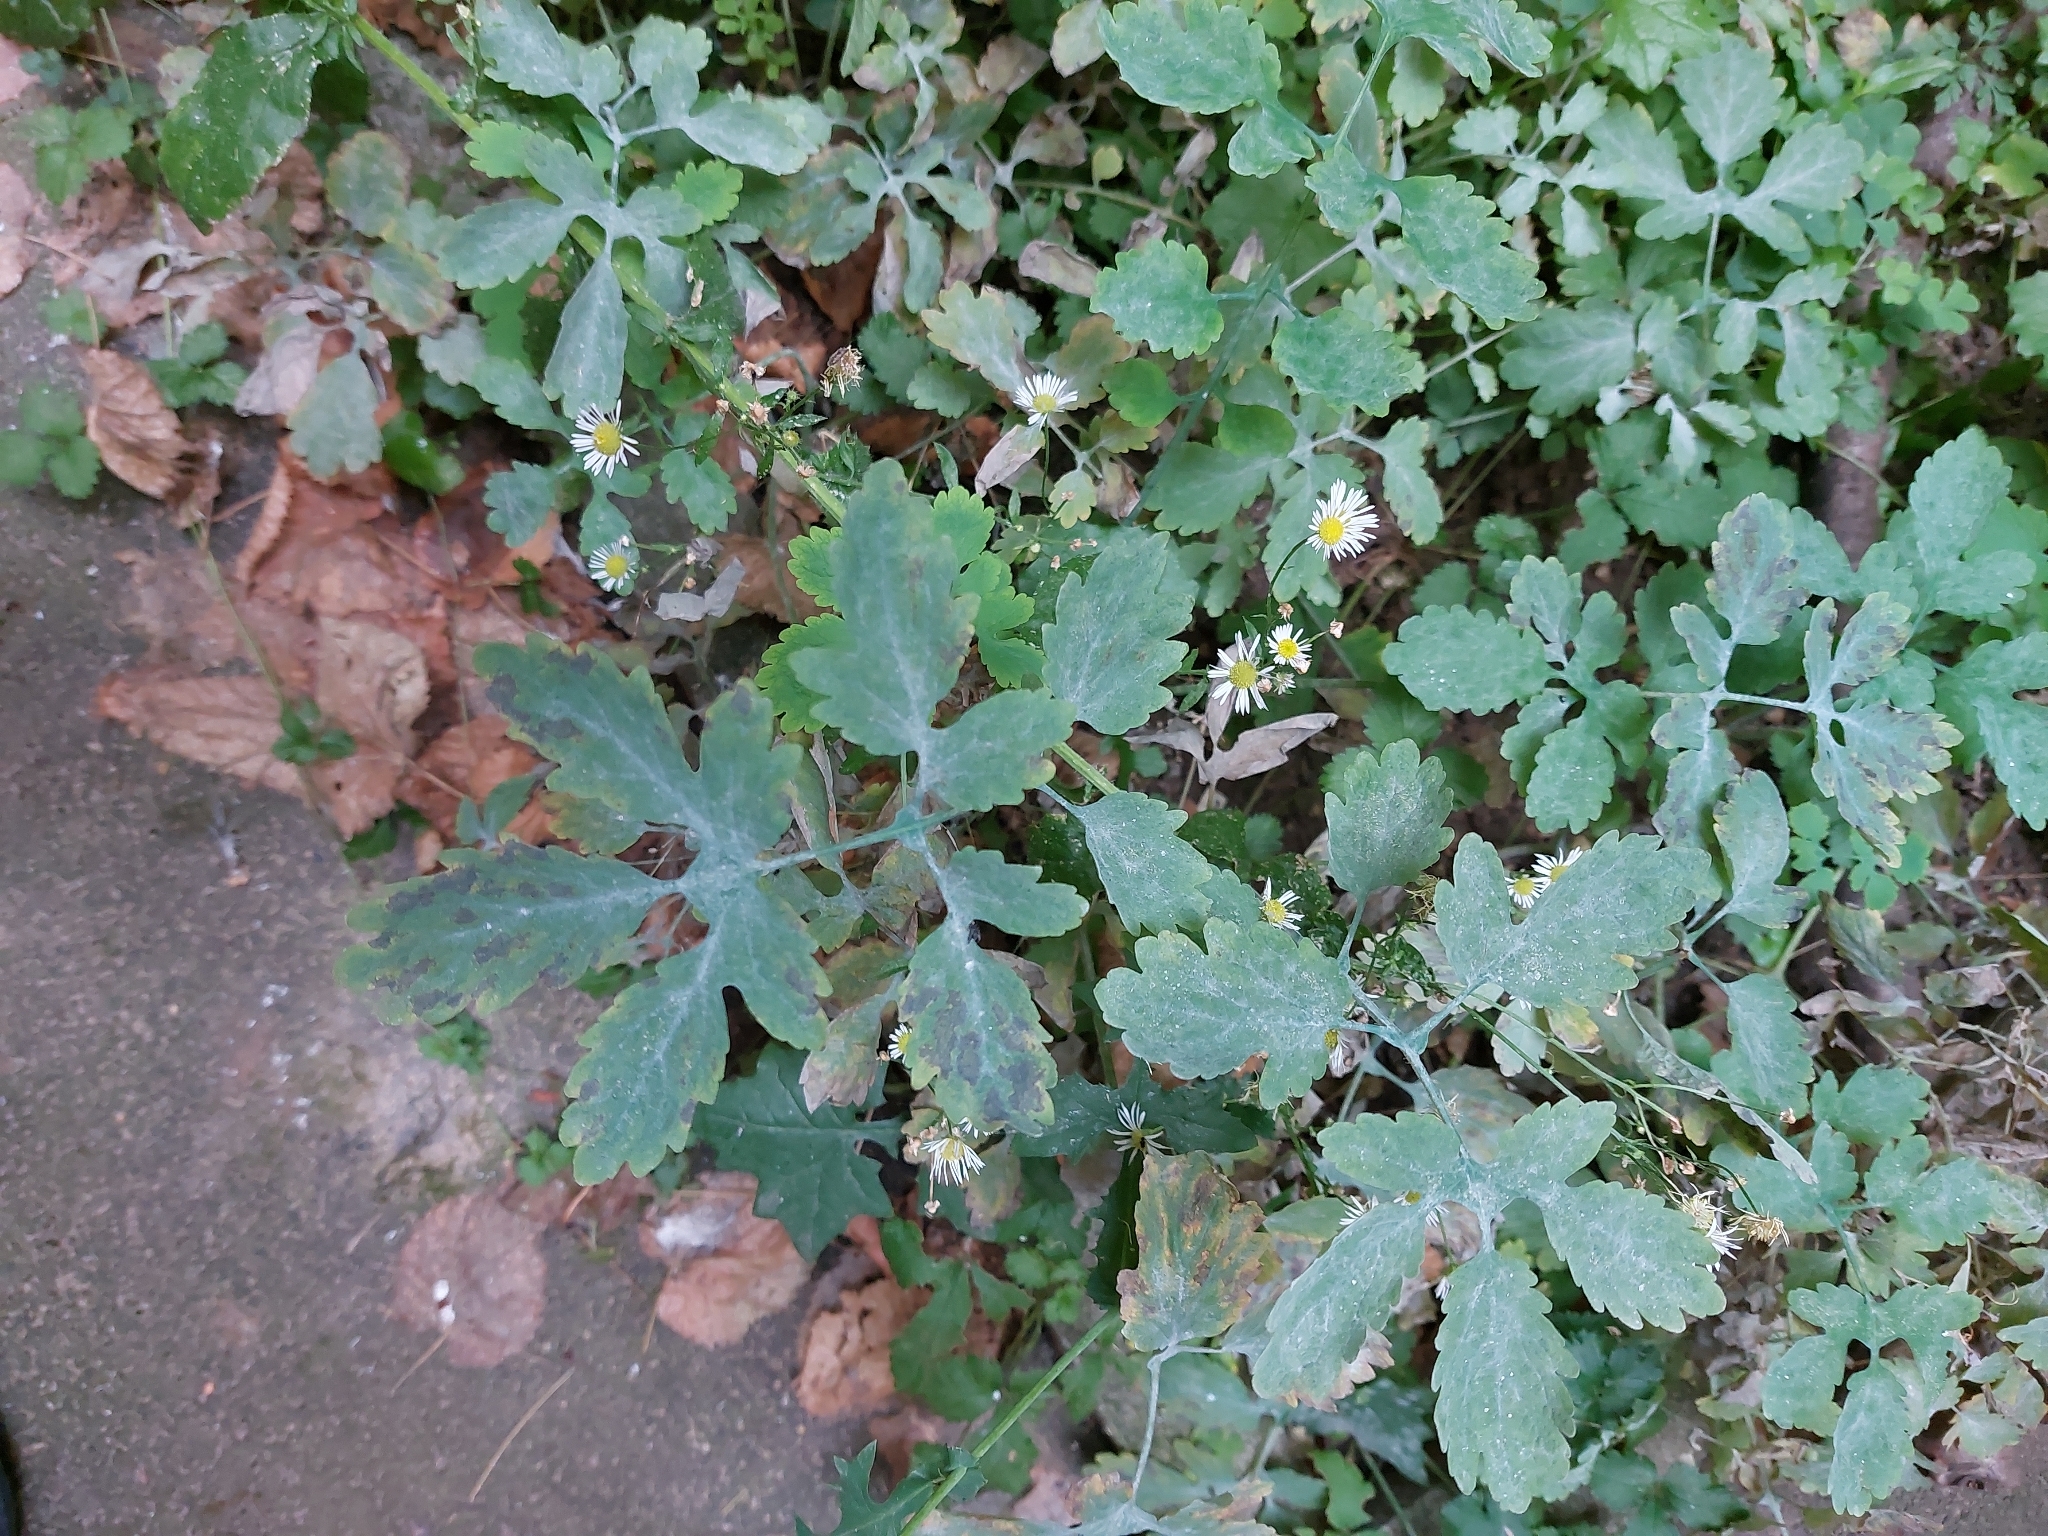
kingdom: Plantae
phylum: Tracheophyta
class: Magnoliopsida
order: Ranunculales
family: Papaveraceae
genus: Chelidonium
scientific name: Chelidonium majus
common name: Greater celandine
